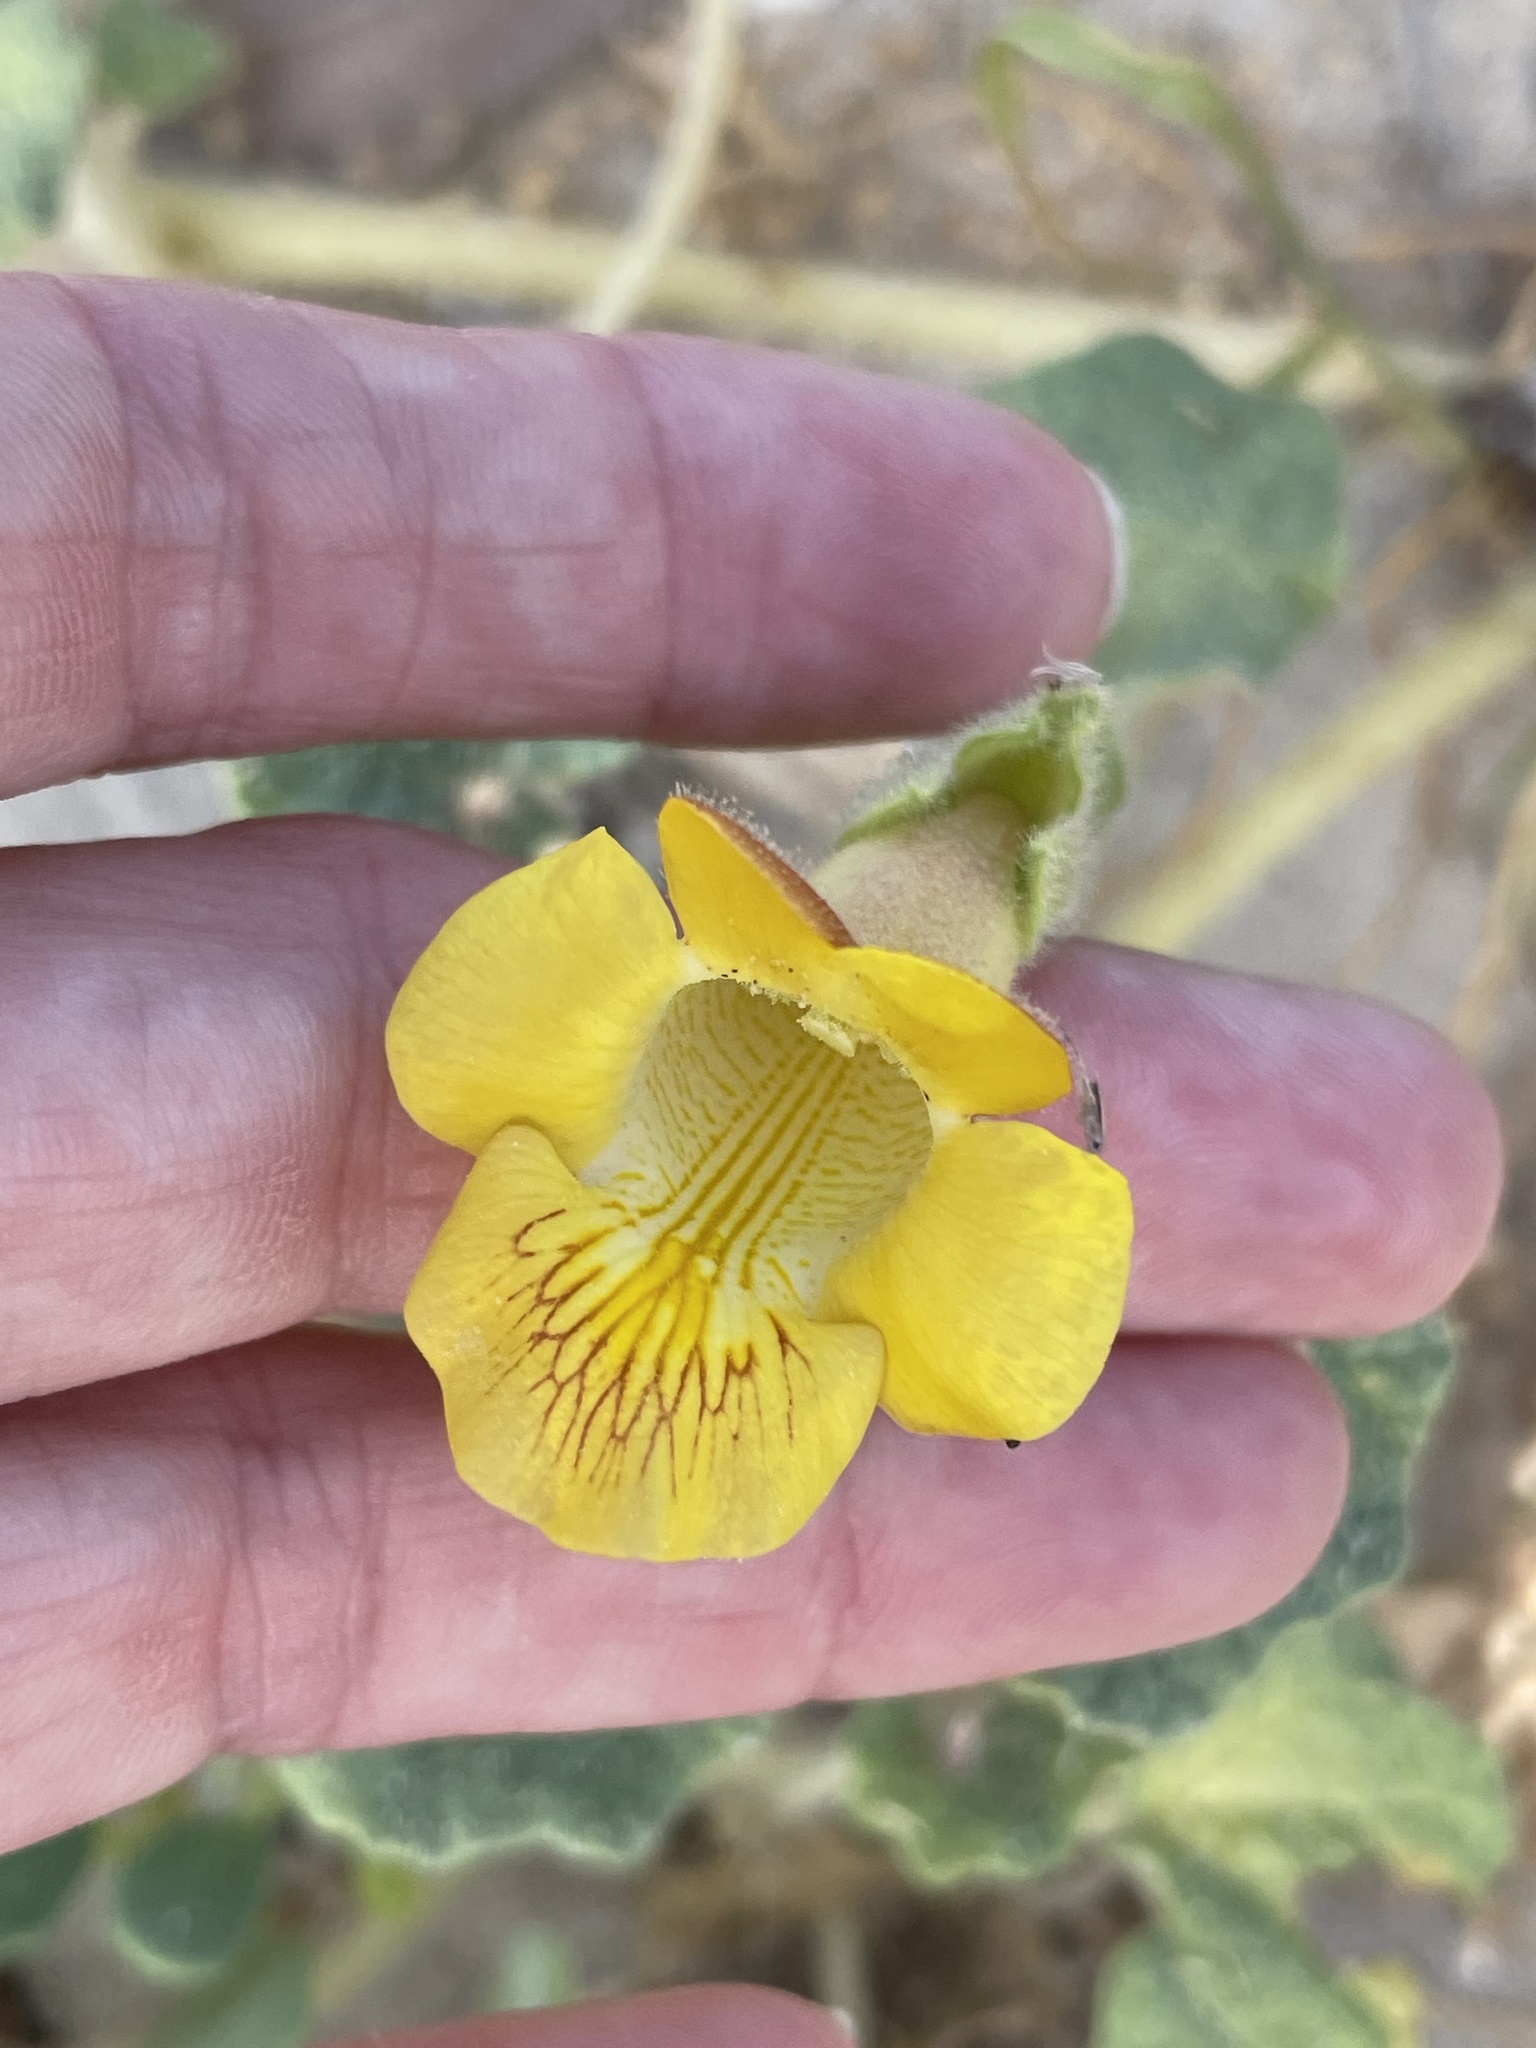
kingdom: Plantae
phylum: Tracheophyta
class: Magnoliopsida
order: Lamiales
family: Martyniaceae
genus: Proboscidea
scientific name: Proboscidea althaeifolia
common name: Desert unicorn-plant
